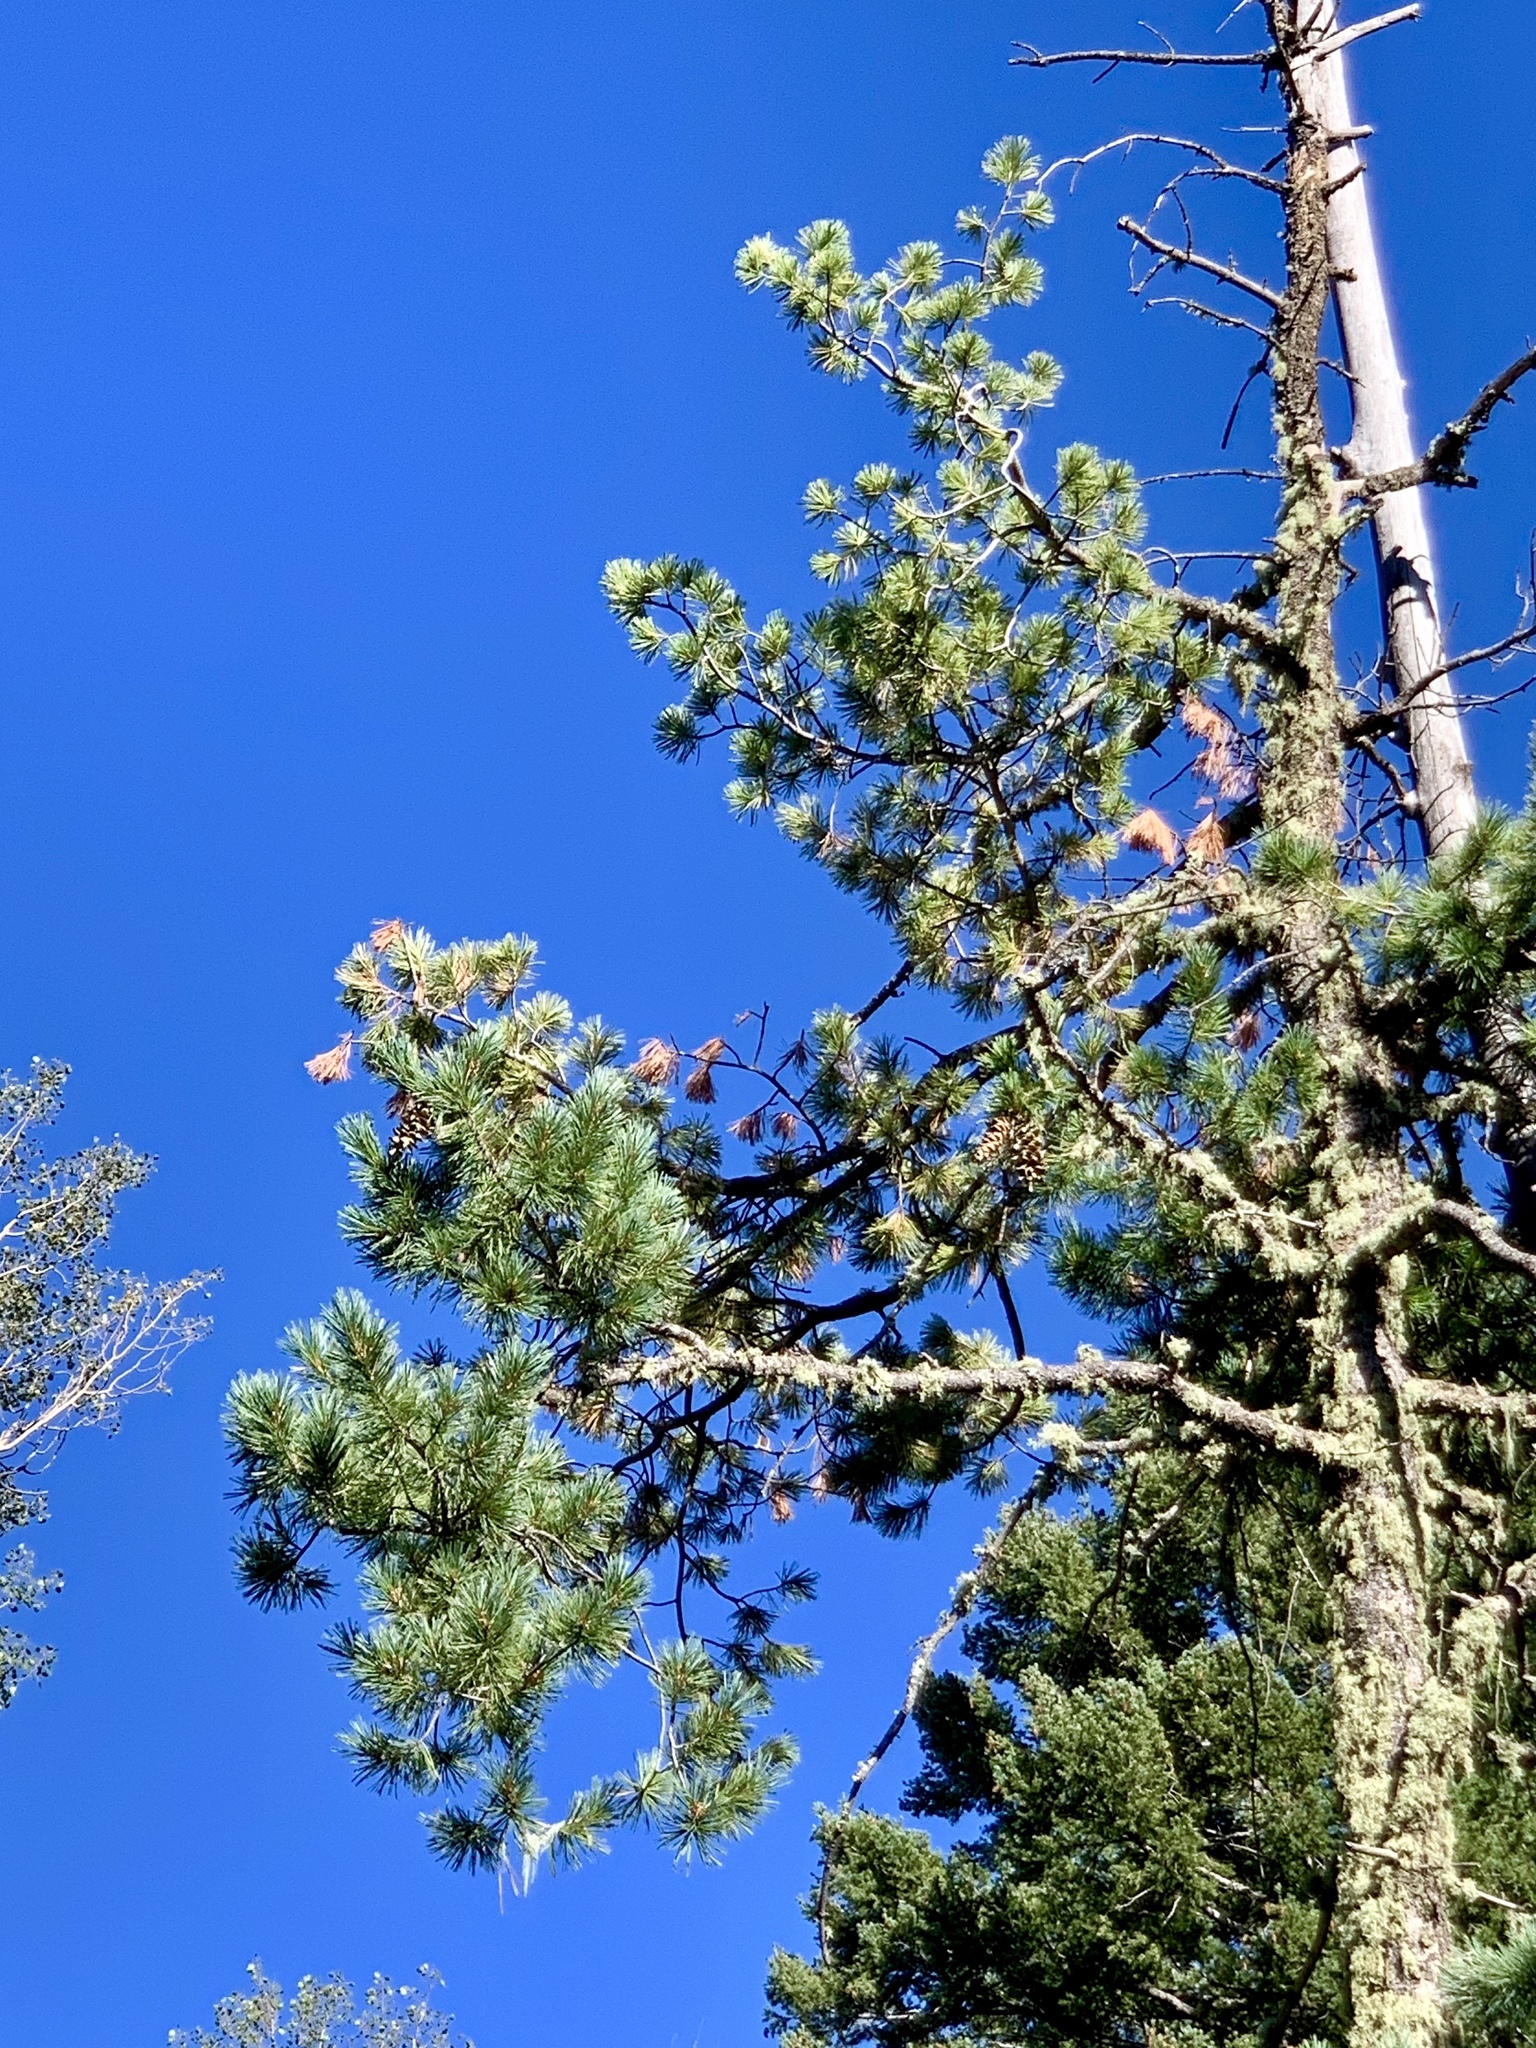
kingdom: Plantae
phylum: Tracheophyta
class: Pinopsida
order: Pinales
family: Pinaceae
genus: Pinus
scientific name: Pinus strobiformis
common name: Southwestern white pine
